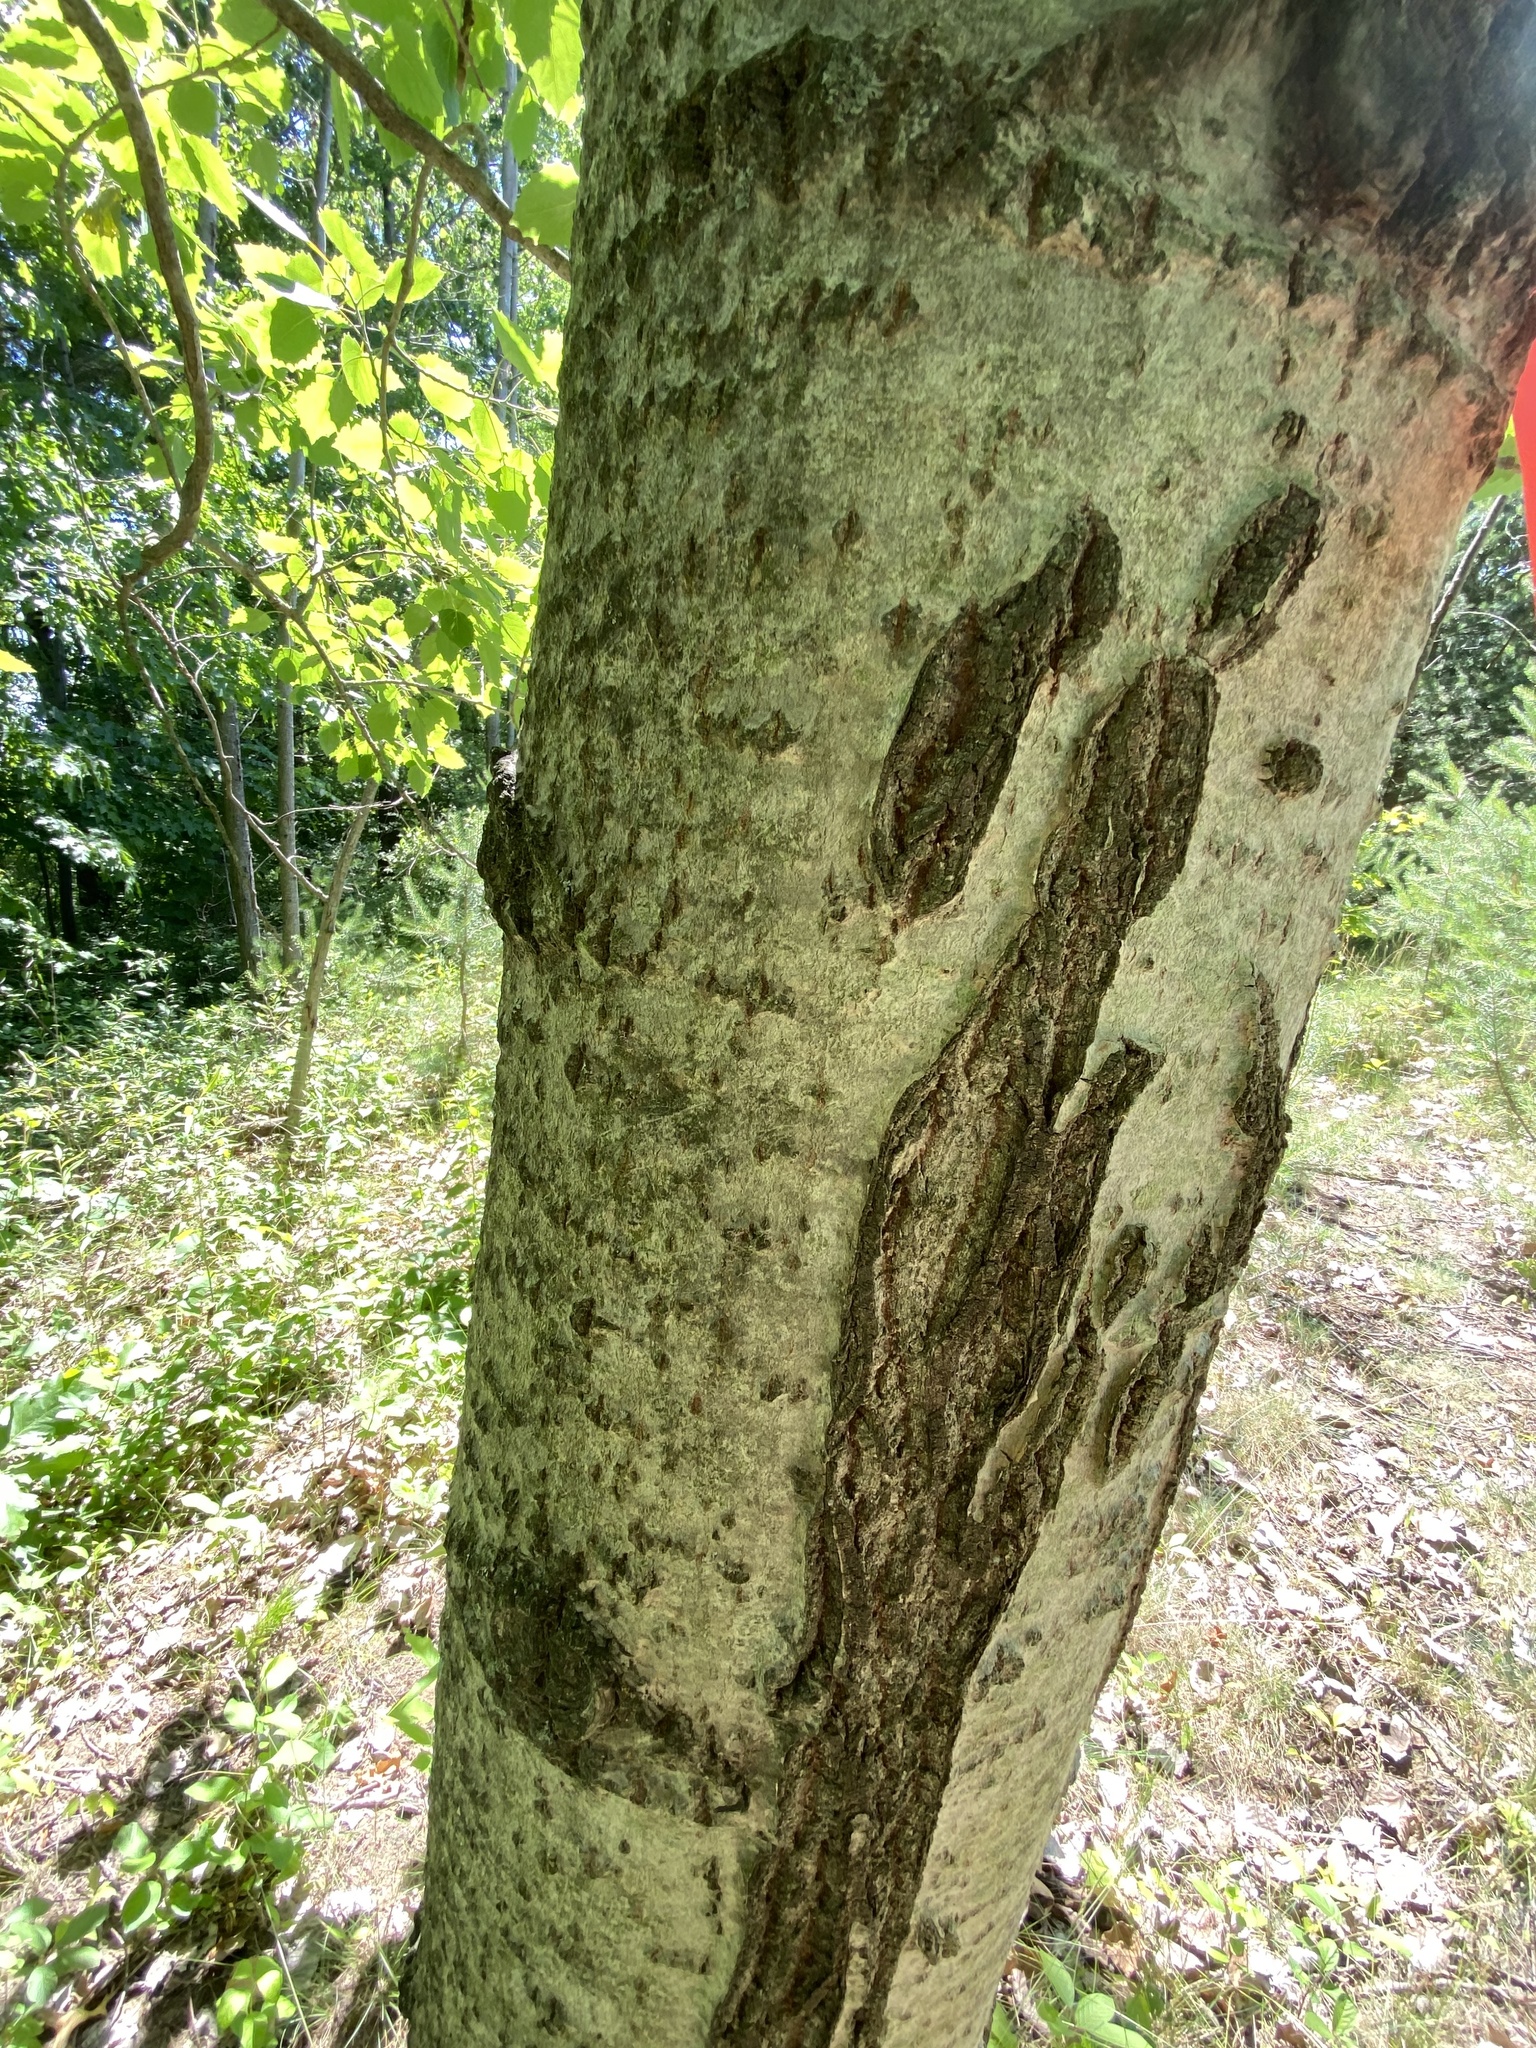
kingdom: Plantae
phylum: Tracheophyta
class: Magnoliopsida
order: Malpighiales
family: Salicaceae
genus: Populus
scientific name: Populus grandidentata
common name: Bigtooth aspen
